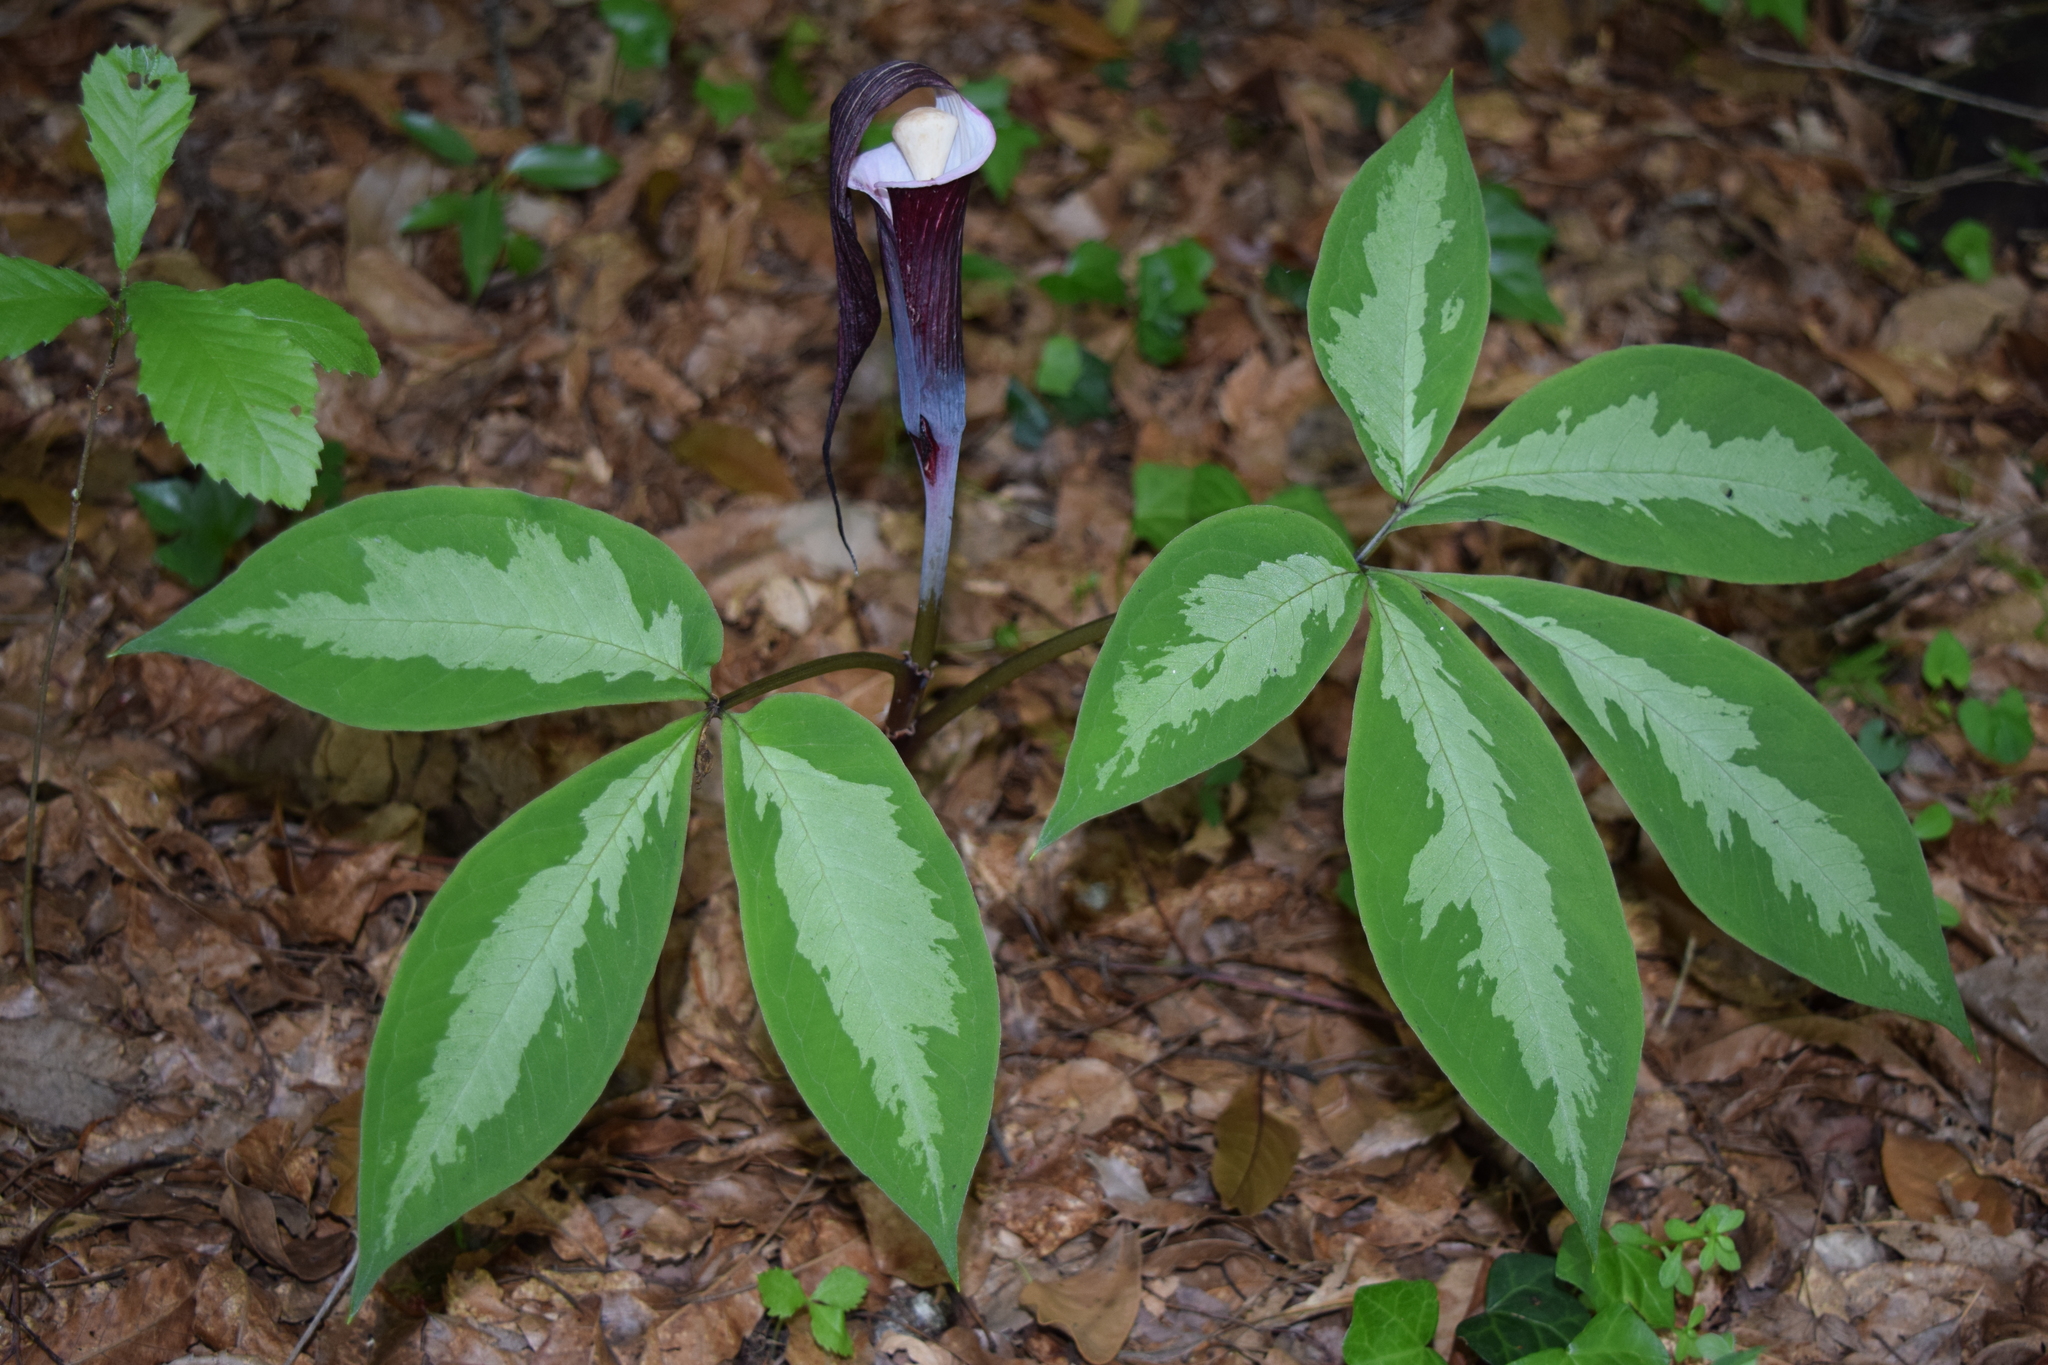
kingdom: Plantae
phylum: Tracheophyta
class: Liliopsida
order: Alismatales
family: Araceae
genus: Arisaema
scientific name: Arisaema sikokianum
